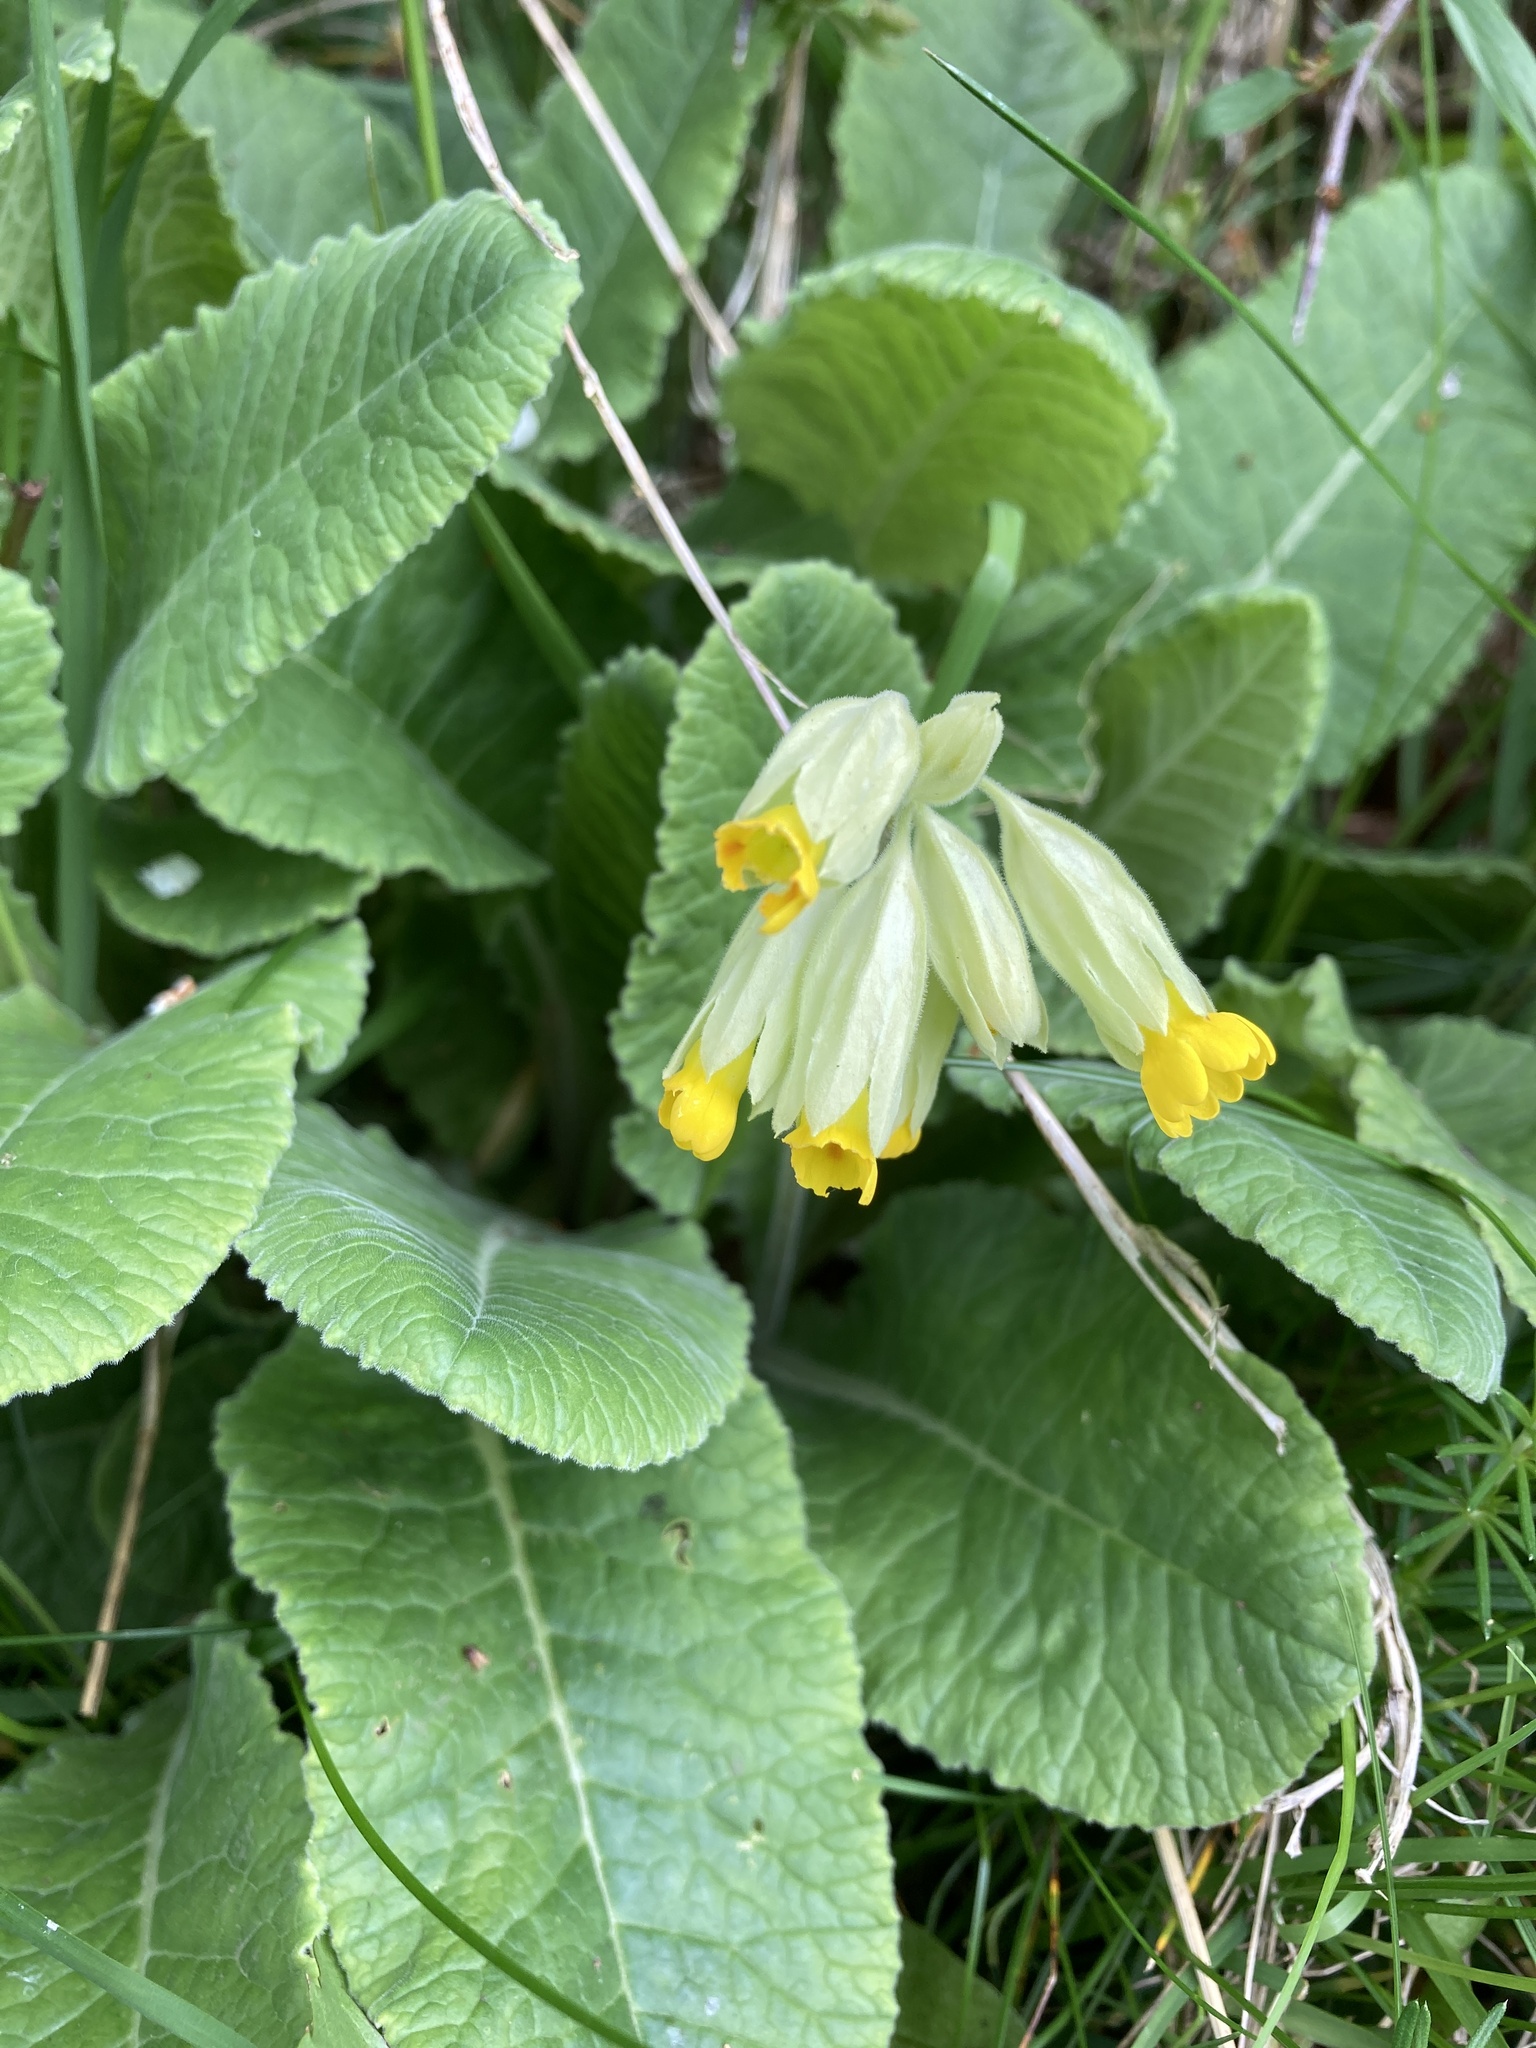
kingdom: Plantae
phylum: Tracheophyta
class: Magnoliopsida
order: Ericales
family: Primulaceae
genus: Primula
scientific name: Primula veris
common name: Cowslip
